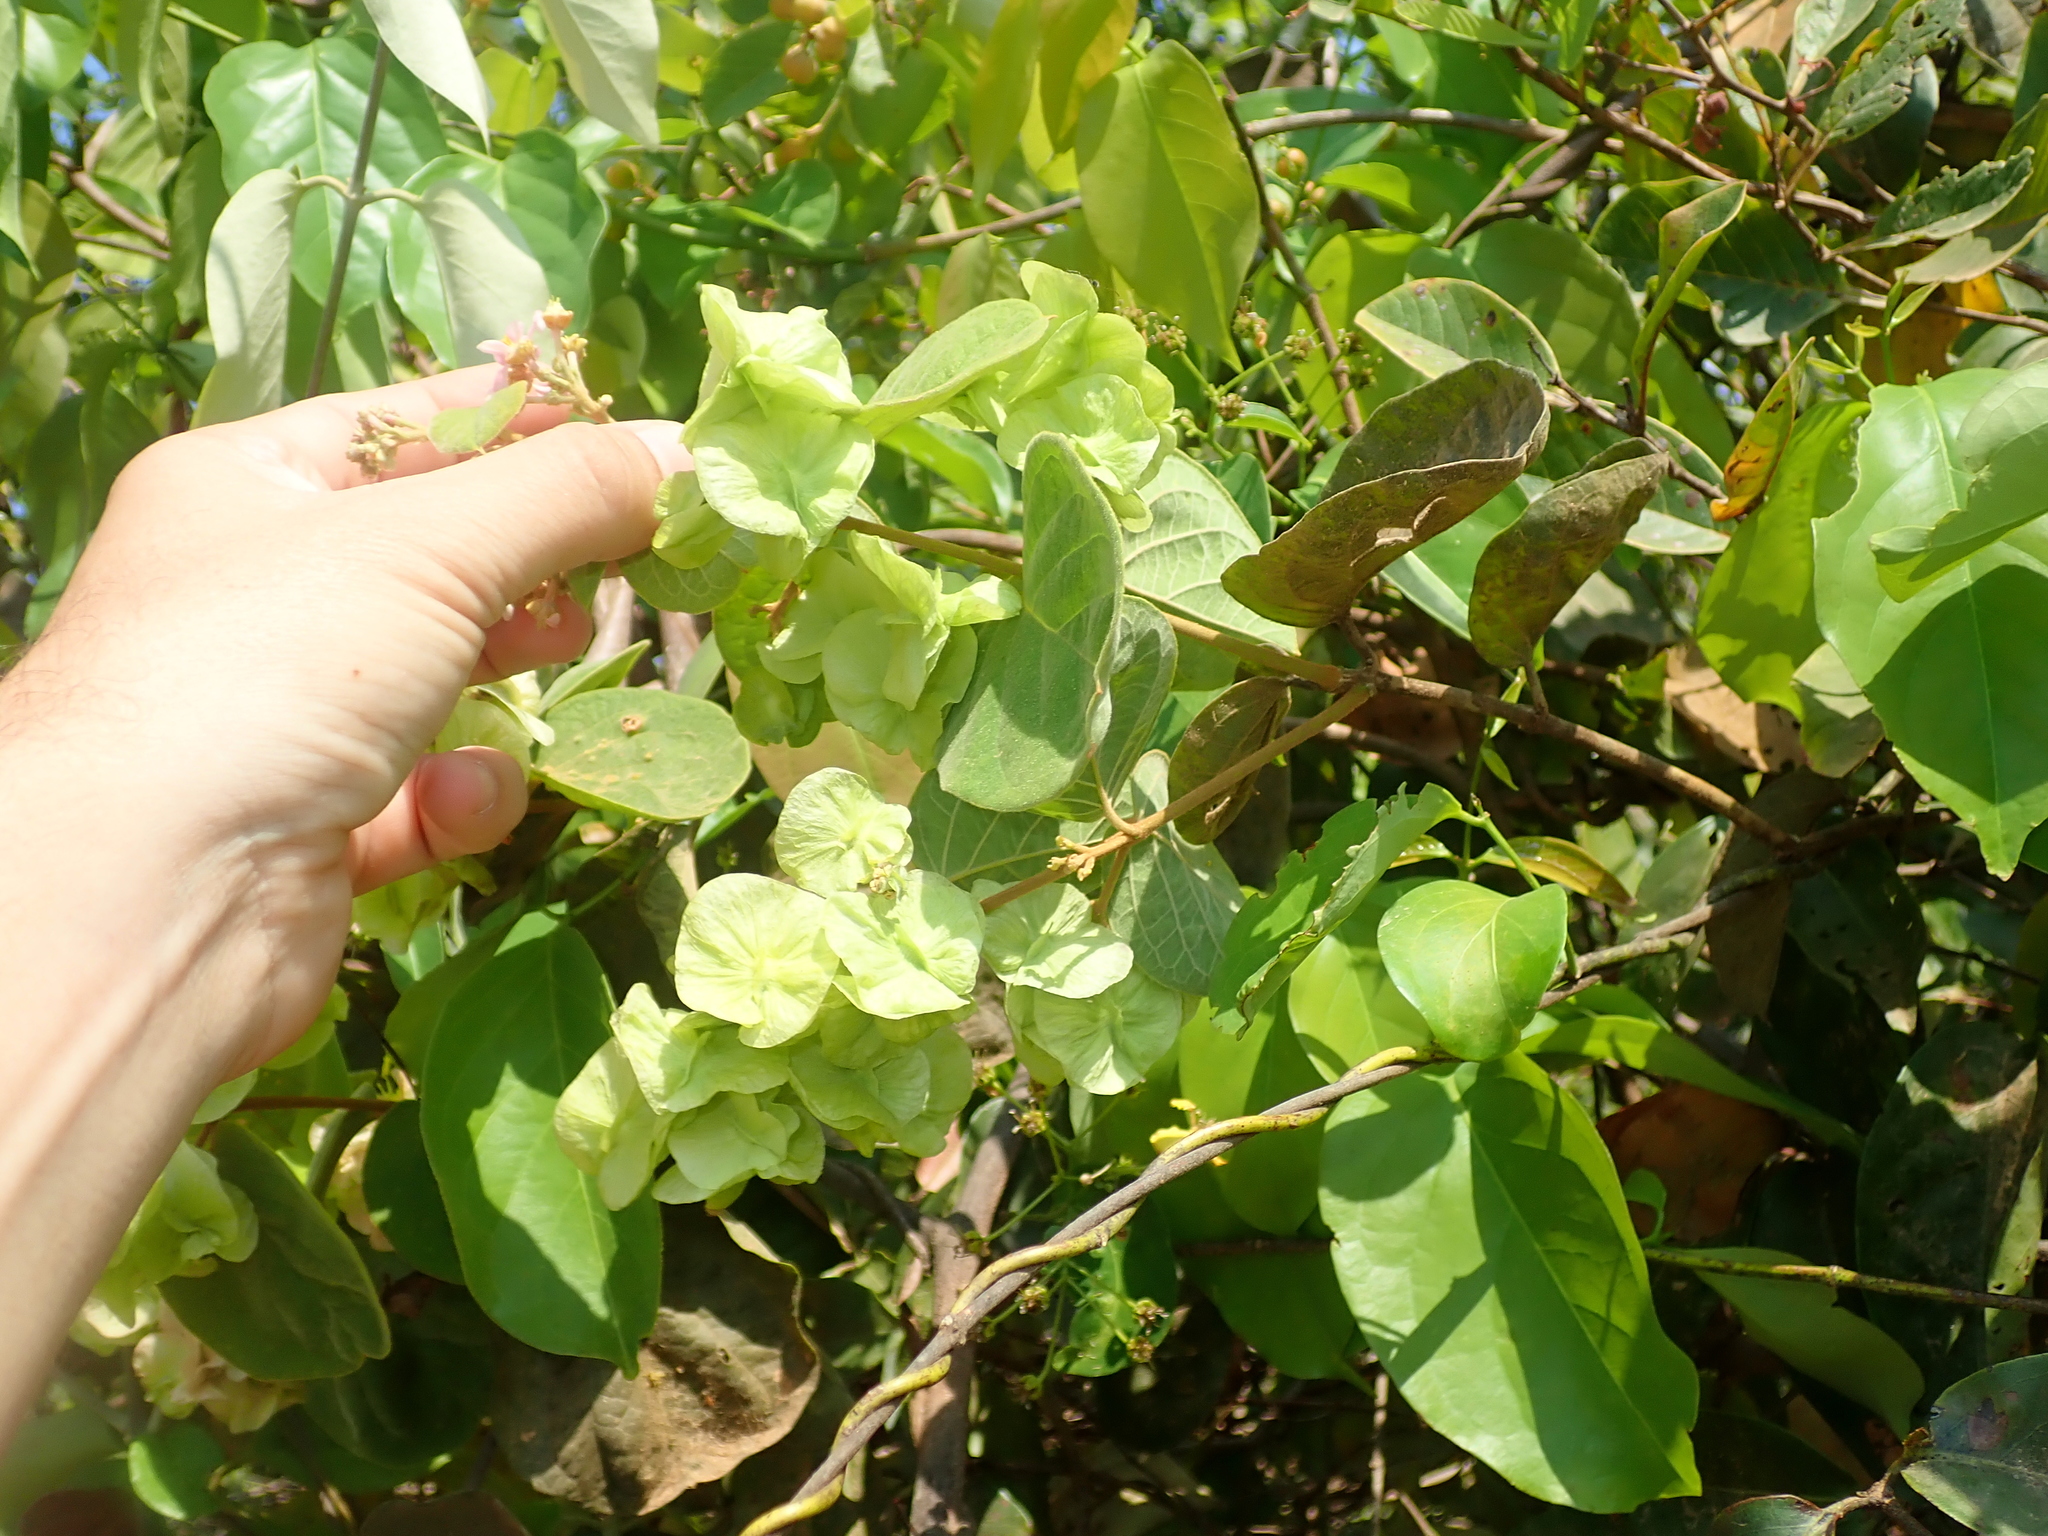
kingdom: Plantae
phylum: Tracheophyta
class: Magnoliopsida
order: Malpighiales
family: Malpighiaceae
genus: Mascagnia
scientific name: Mascagnia cordifolia
